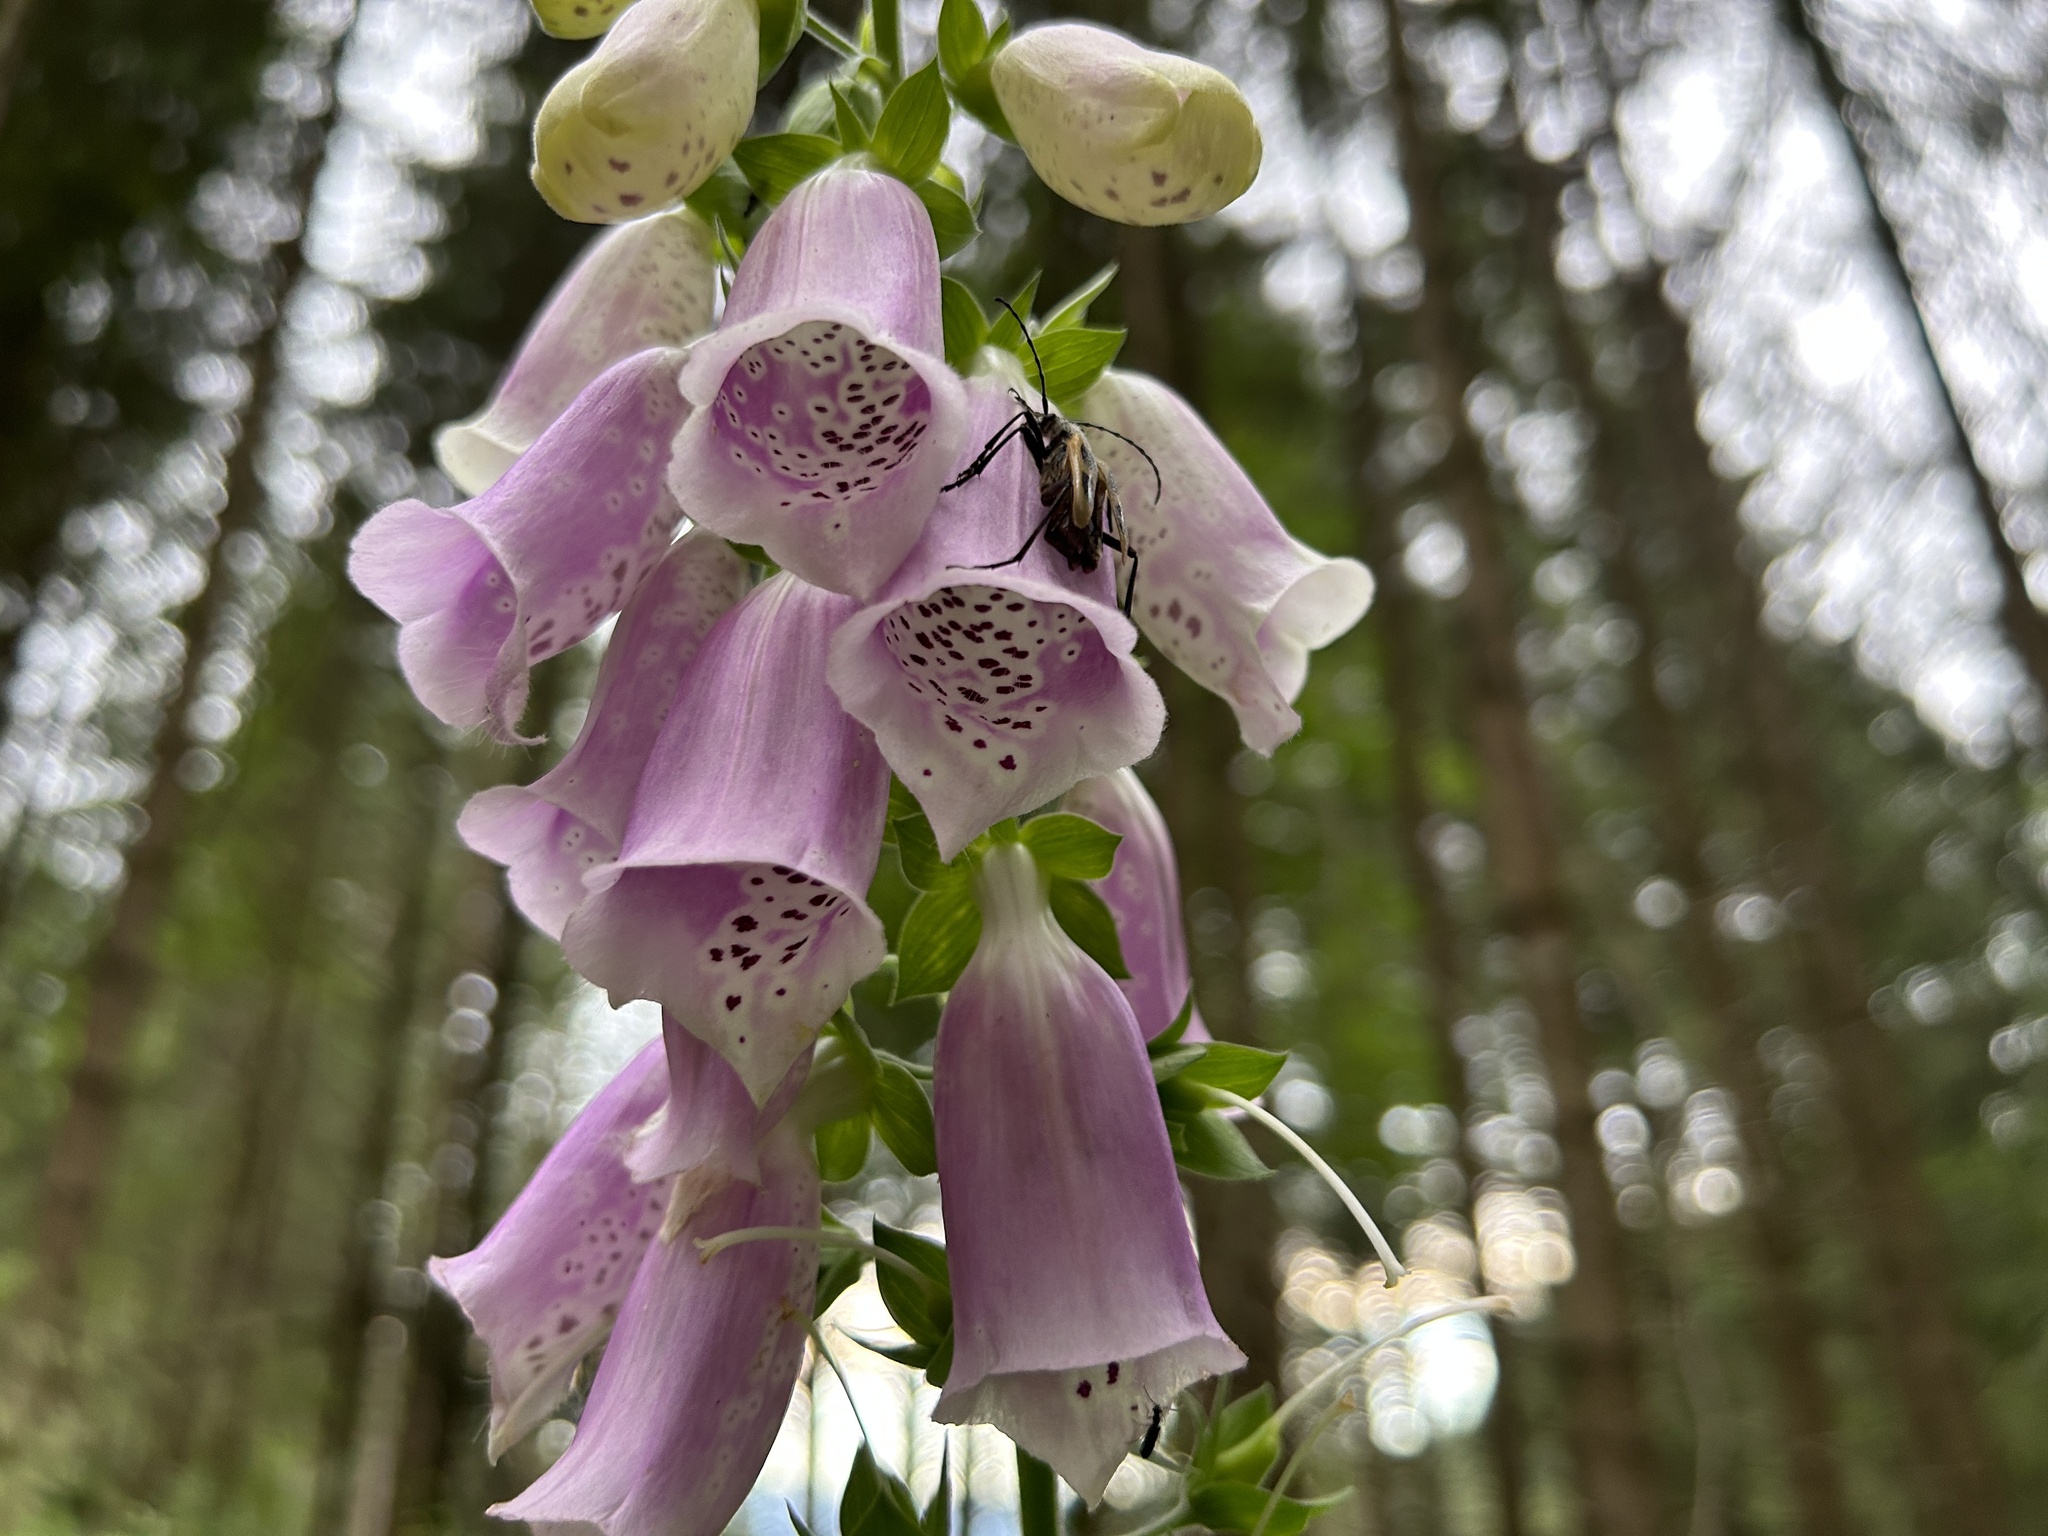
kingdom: Plantae
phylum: Tracheophyta
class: Magnoliopsida
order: Lamiales
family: Plantaginaceae
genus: Digitalis
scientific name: Digitalis purpurea
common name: Foxglove
